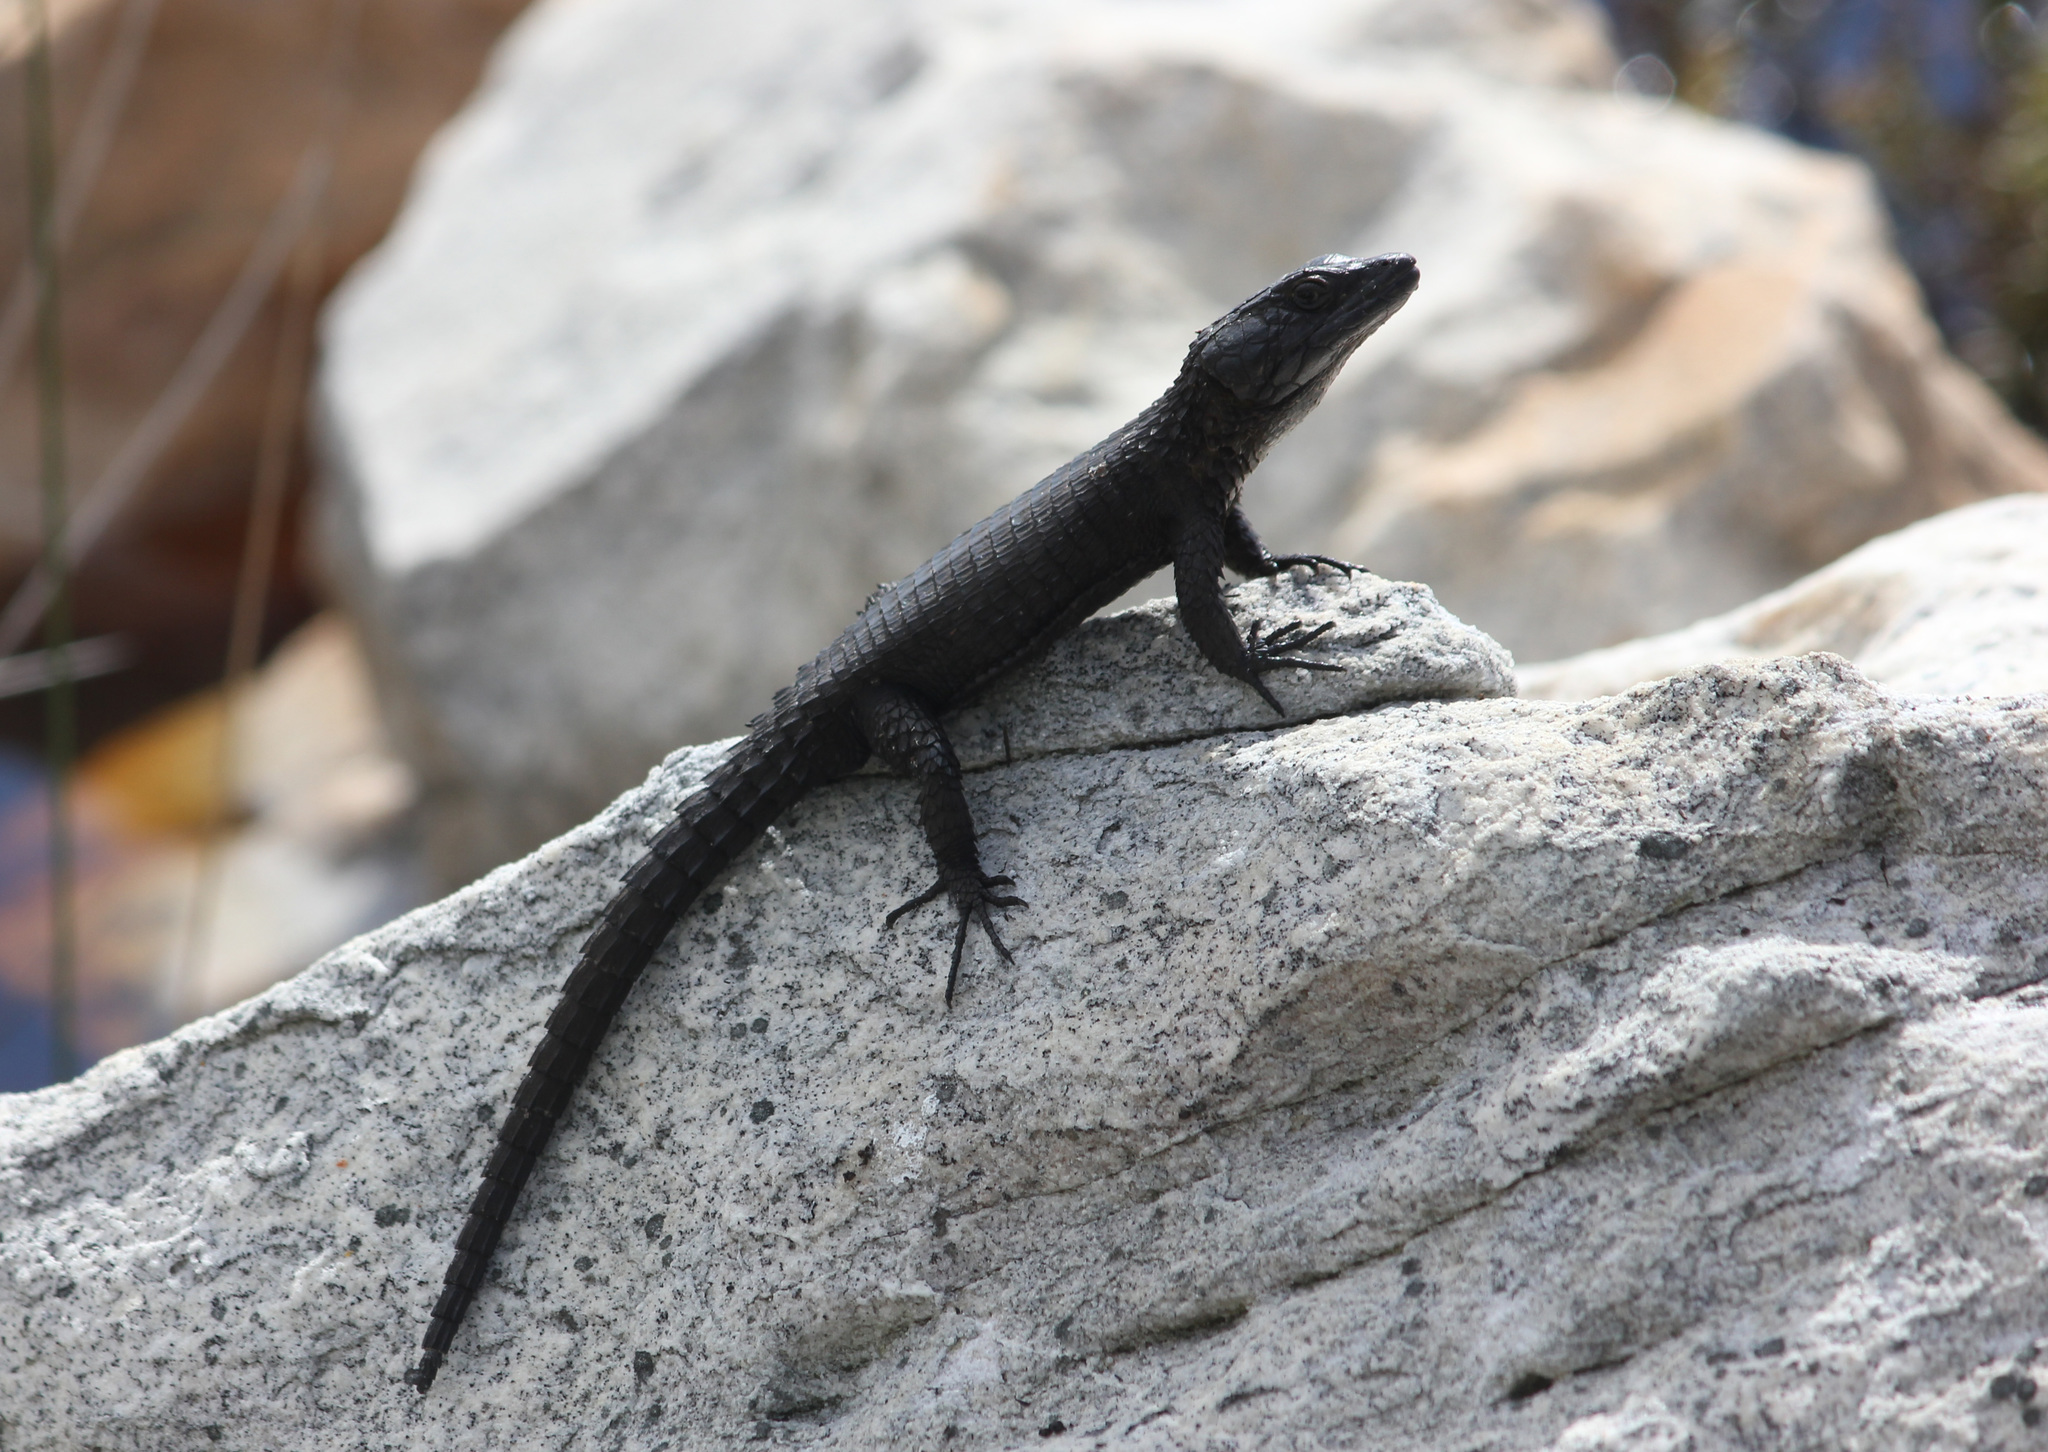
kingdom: Animalia
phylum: Chordata
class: Squamata
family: Cordylidae
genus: Cordylus
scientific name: Cordylus niger
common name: Black girdled lizard
